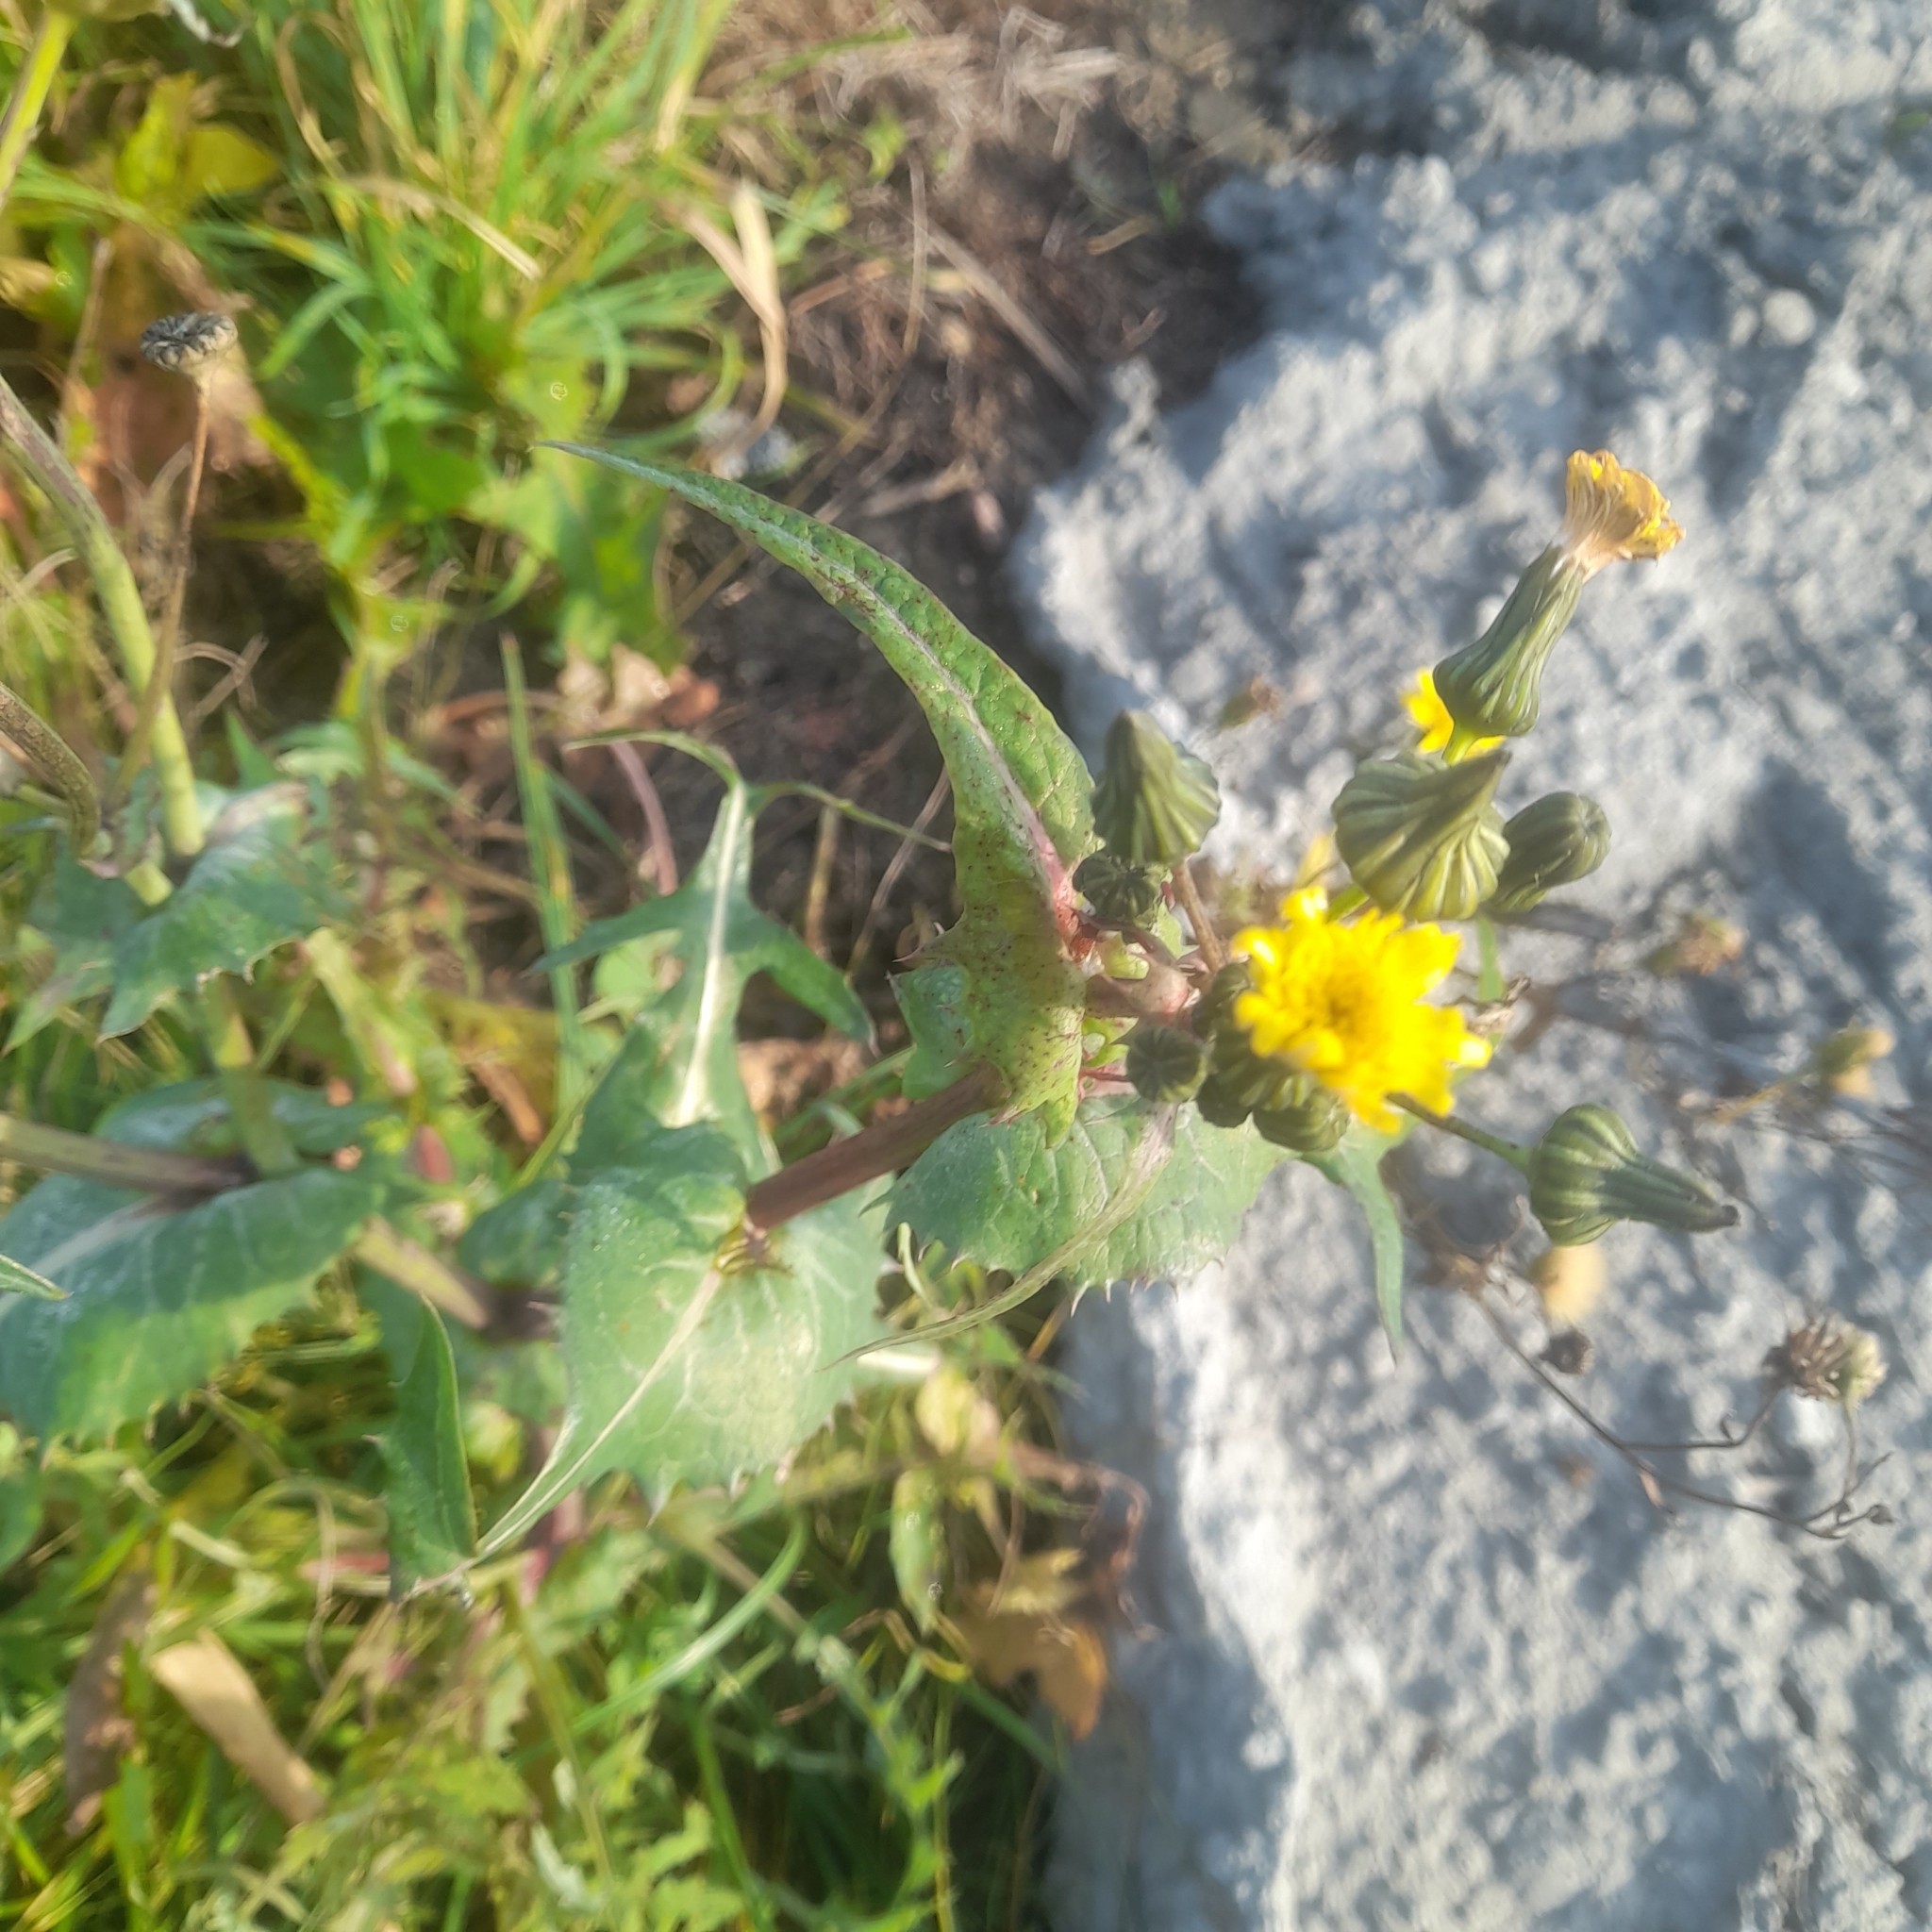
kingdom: Plantae
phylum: Tracheophyta
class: Magnoliopsida
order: Asterales
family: Asteraceae
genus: Sonchus
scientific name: Sonchus oleraceus
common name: Common sowthistle
